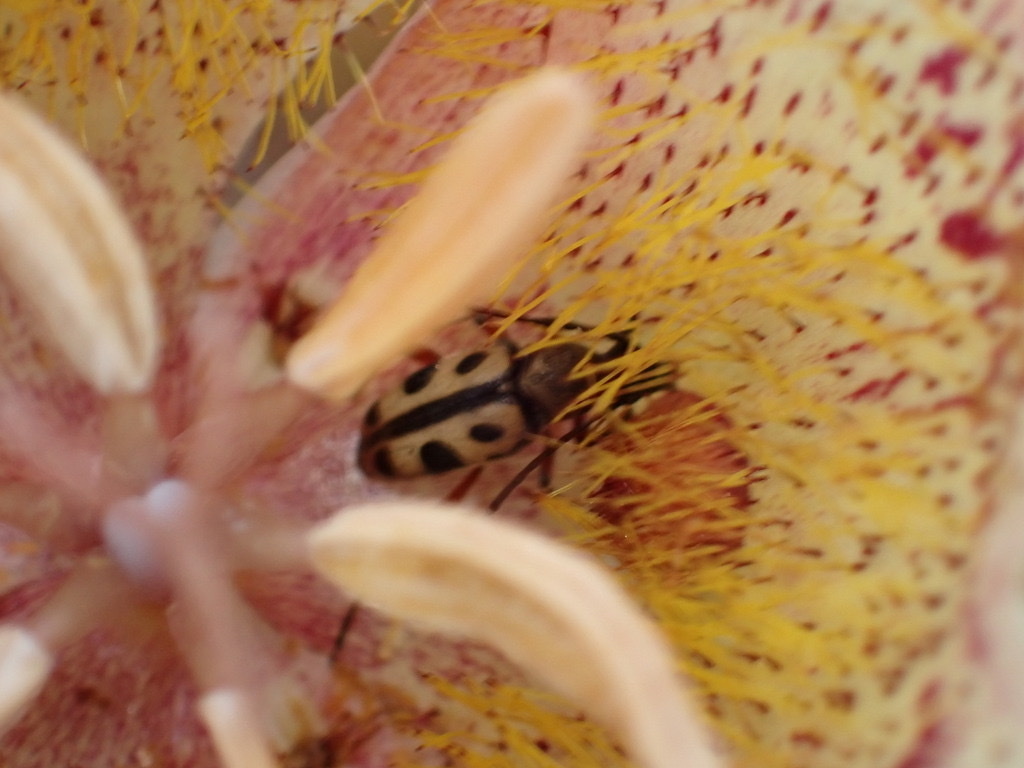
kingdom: Animalia
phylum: Arthropoda
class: Insecta
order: Coleoptera
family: Cerambycidae
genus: Judolia
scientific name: Judolia sexspilota
